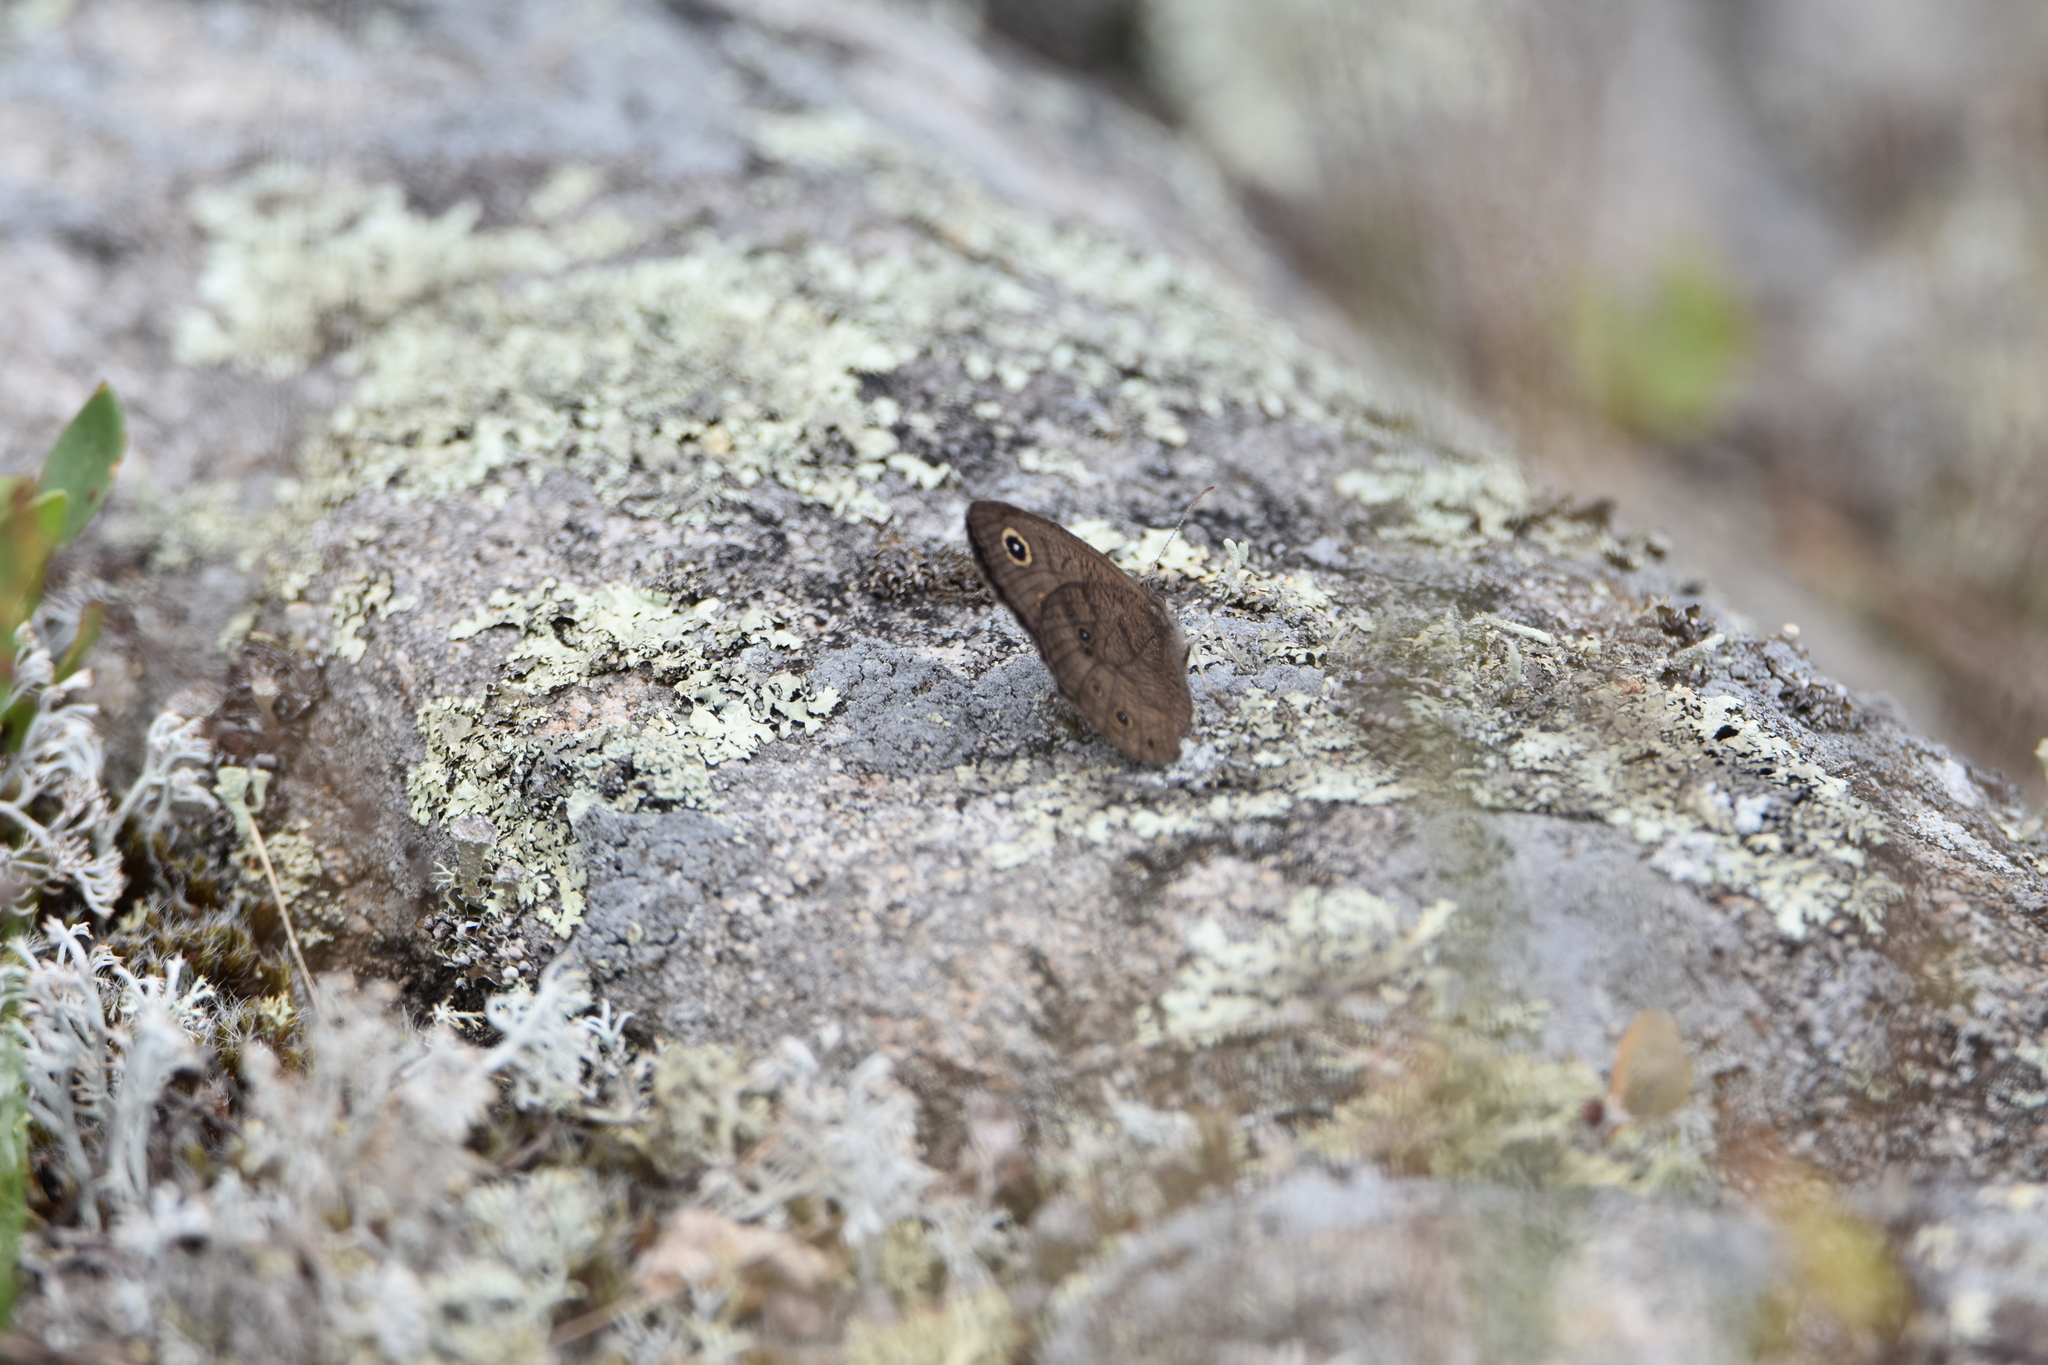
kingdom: Animalia
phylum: Arthropoda
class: Insecta
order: Lepidoptera
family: Nymphalidae
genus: Cercyonis
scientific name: Cercyonis pegala
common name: Common wood-nymph
